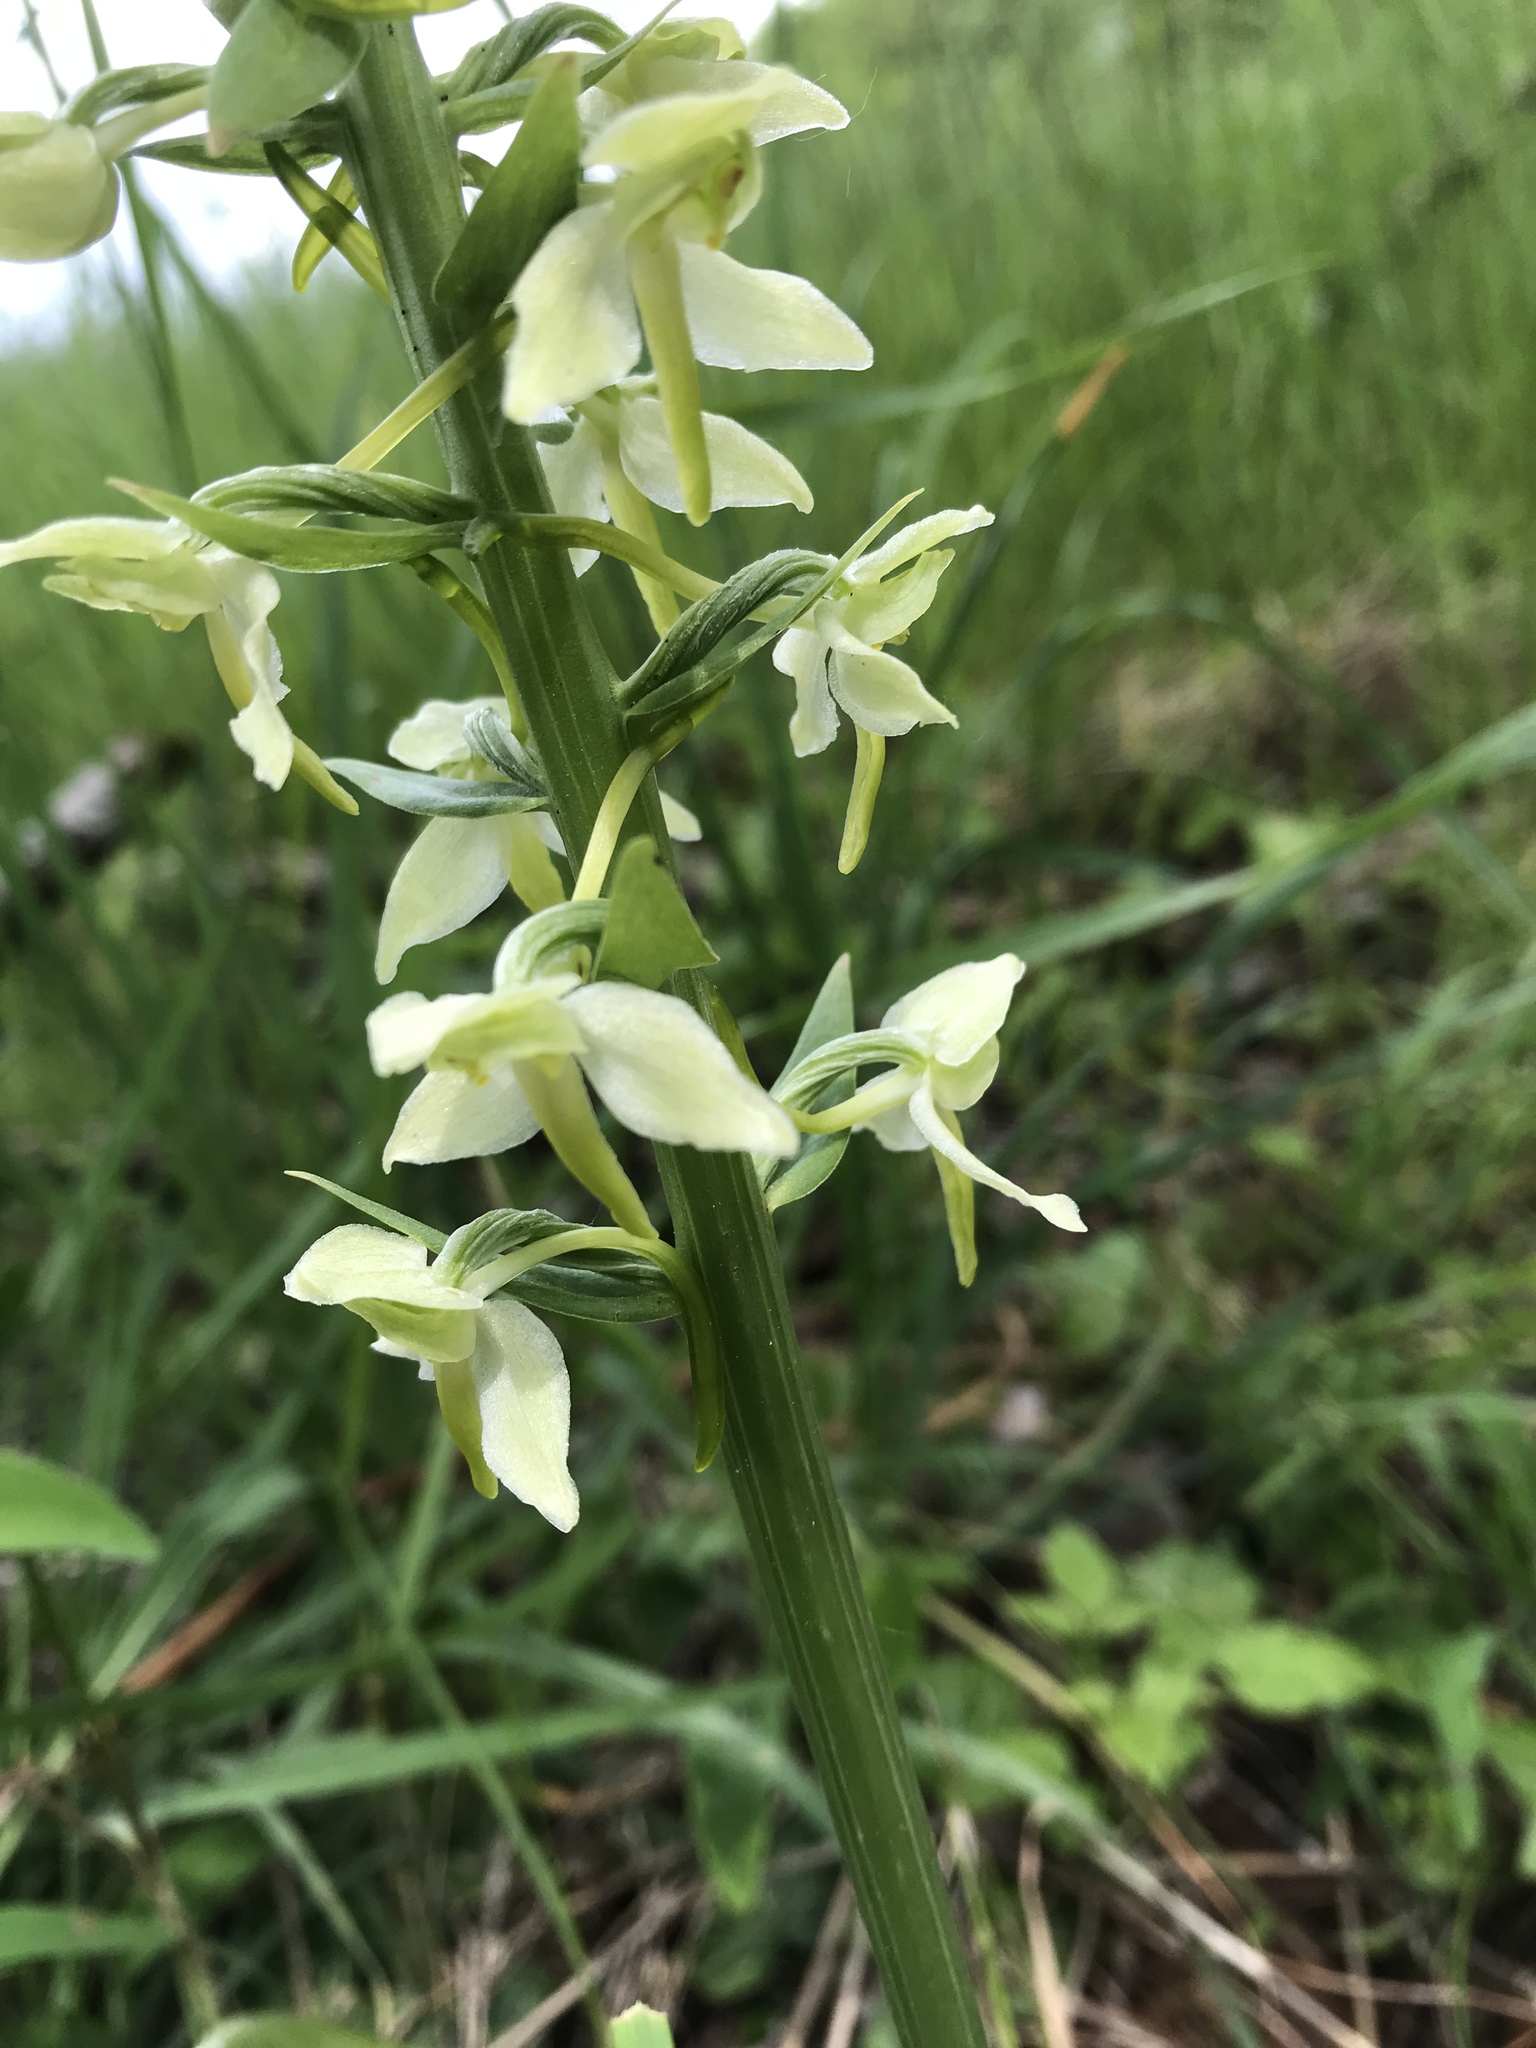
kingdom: Plantae
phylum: Tracheophyta
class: Liliopsida
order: Asparagales
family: Orchidaceae
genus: Platanthera
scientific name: Platanthera chlorantha
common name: Greater butterfly-orchid
